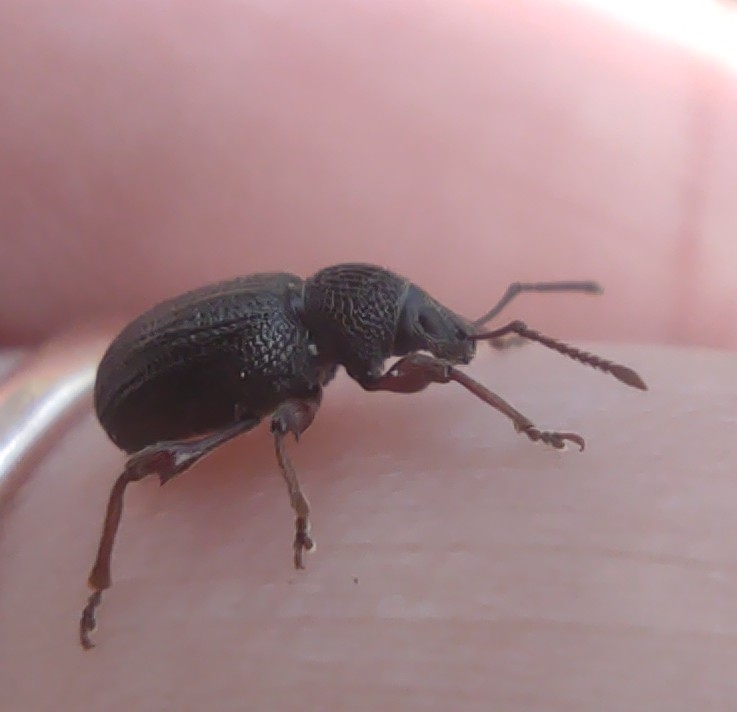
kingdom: Animalia
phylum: Arthropoda
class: Insecta
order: Coleoptera
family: Curculionidae
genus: Otiorhynchus
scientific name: Otiorhynchus ovatus
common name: Strawberry root weevil
